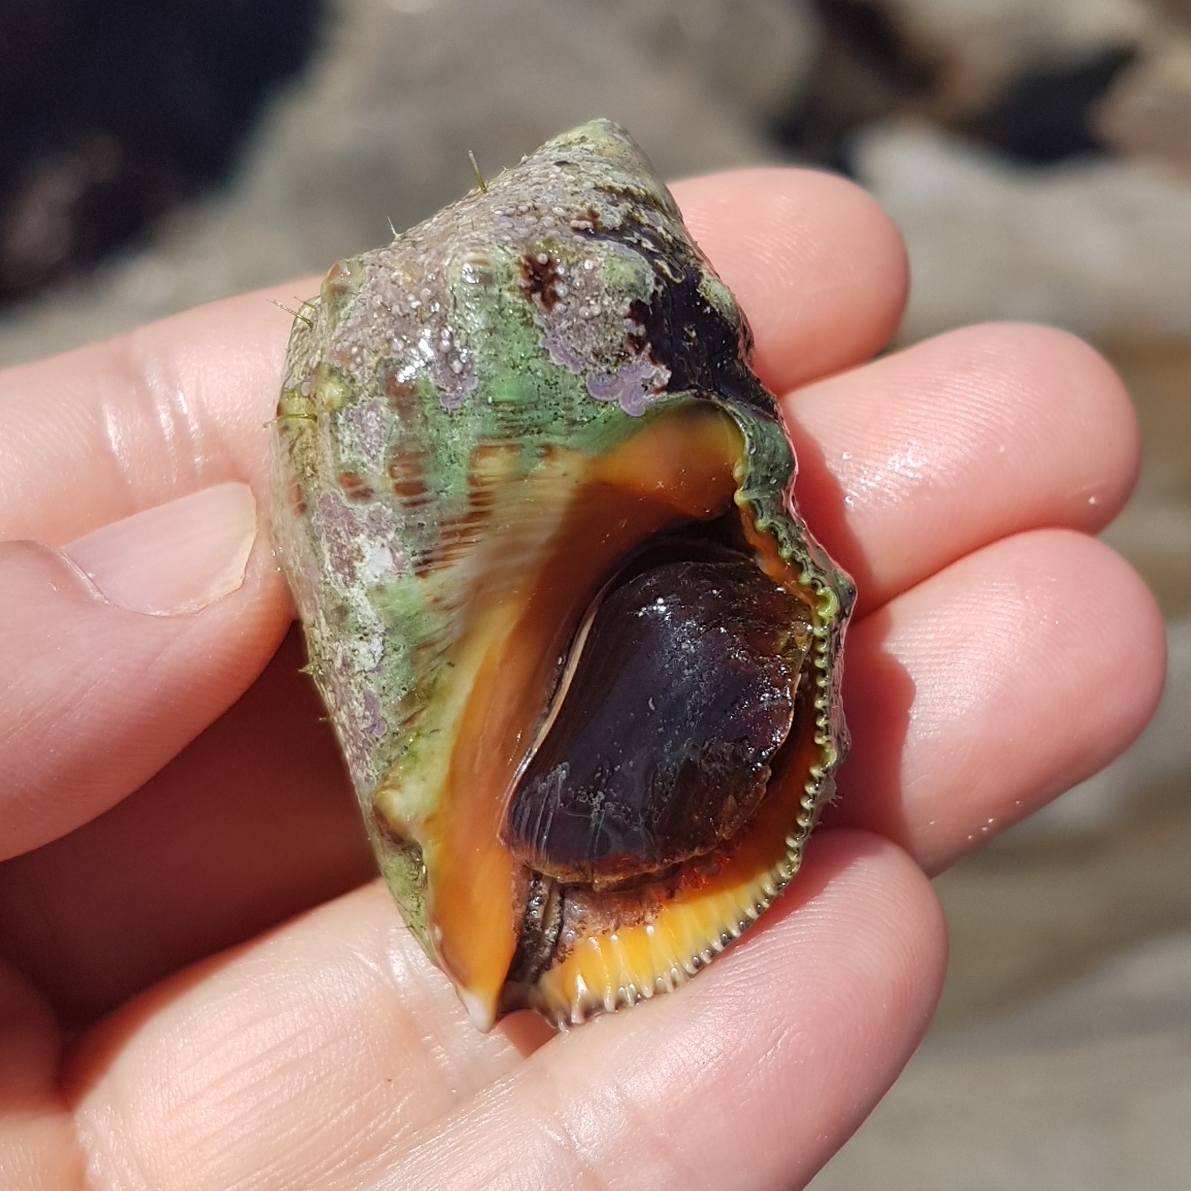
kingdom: Animalia
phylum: Mollusca
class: Gastropoda
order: Neogastropoda
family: Muricidae
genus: Stramonita
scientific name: Stramonita haemastoma
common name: Florida dog winkle
